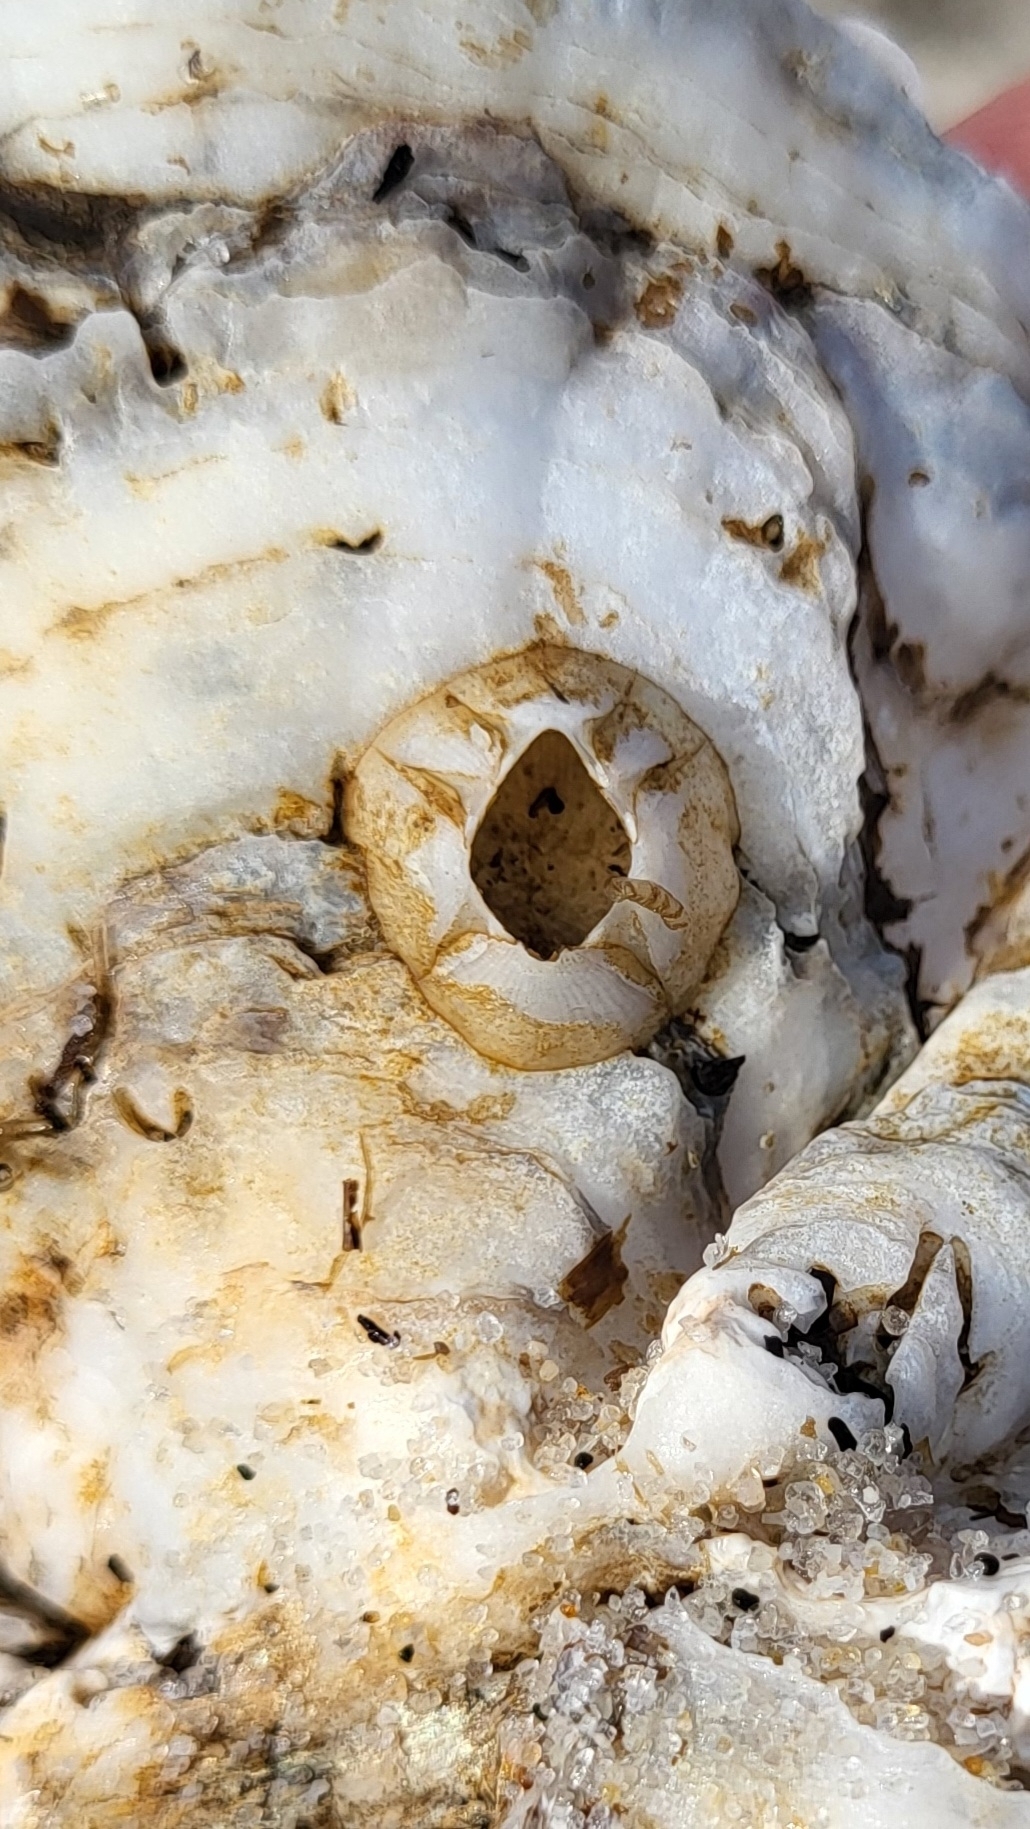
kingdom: Animalia
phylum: Arthropoda
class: Maxillopoda
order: Sessilia
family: Balanidae
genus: Amphibalanus
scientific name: Amphibalanus improvisus
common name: Bay barnacle
